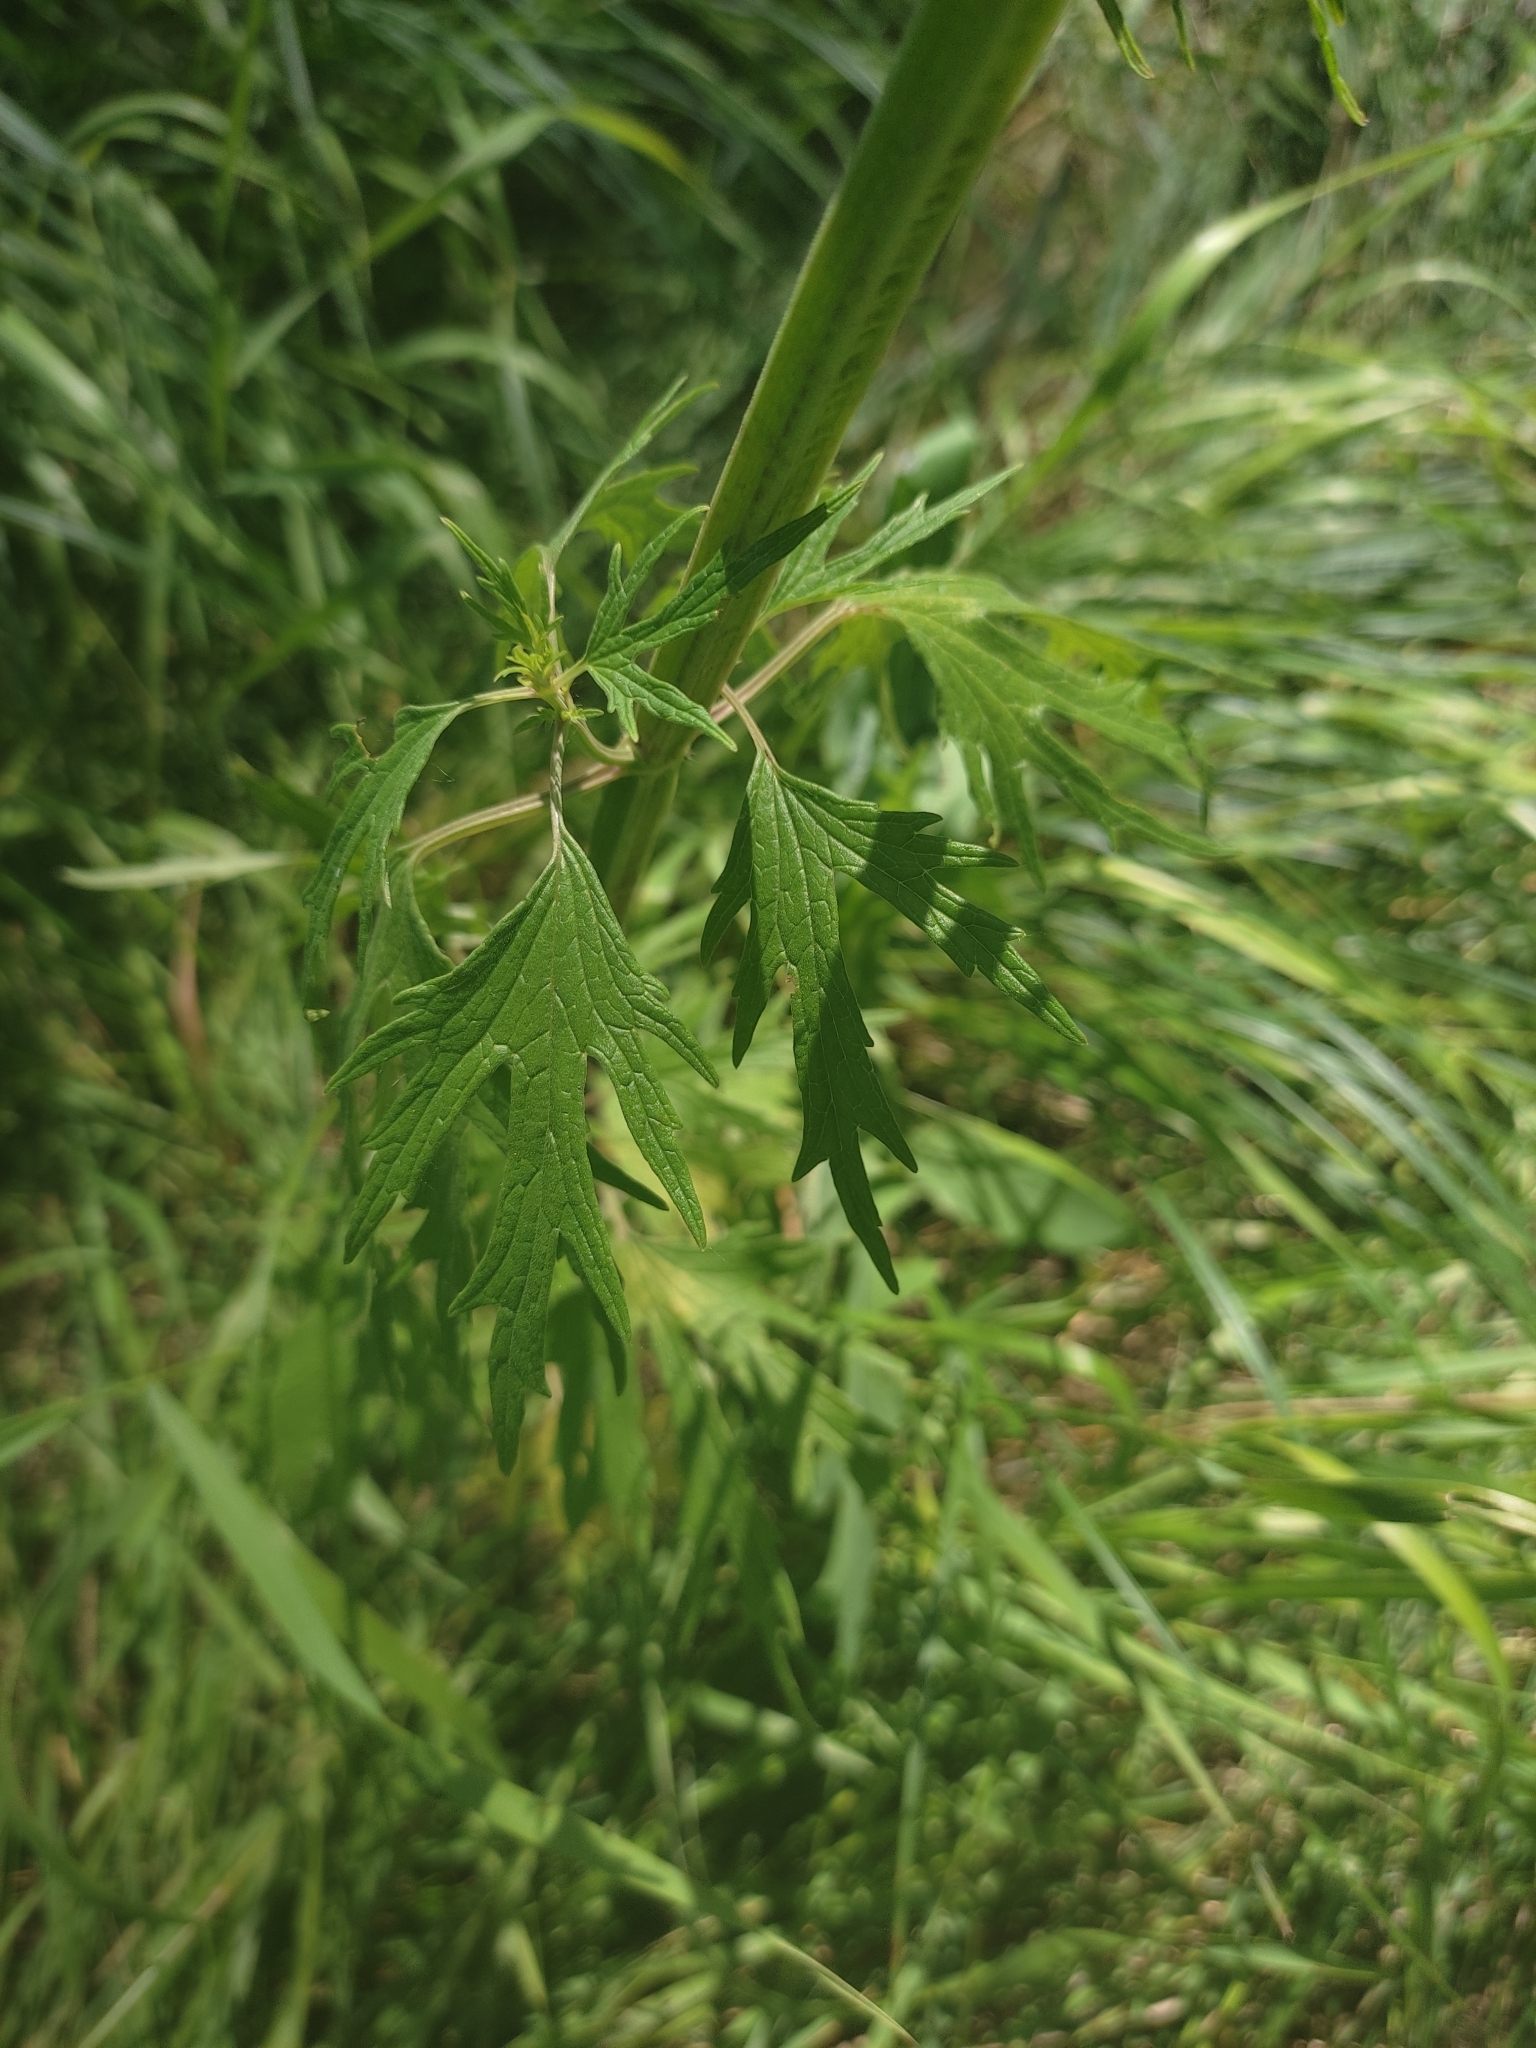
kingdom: Plantae
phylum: Tracheophyta
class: Magnoliopsida
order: Lamiales
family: Lamiaceae
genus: Leonurus
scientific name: Leonurus glaucescens
